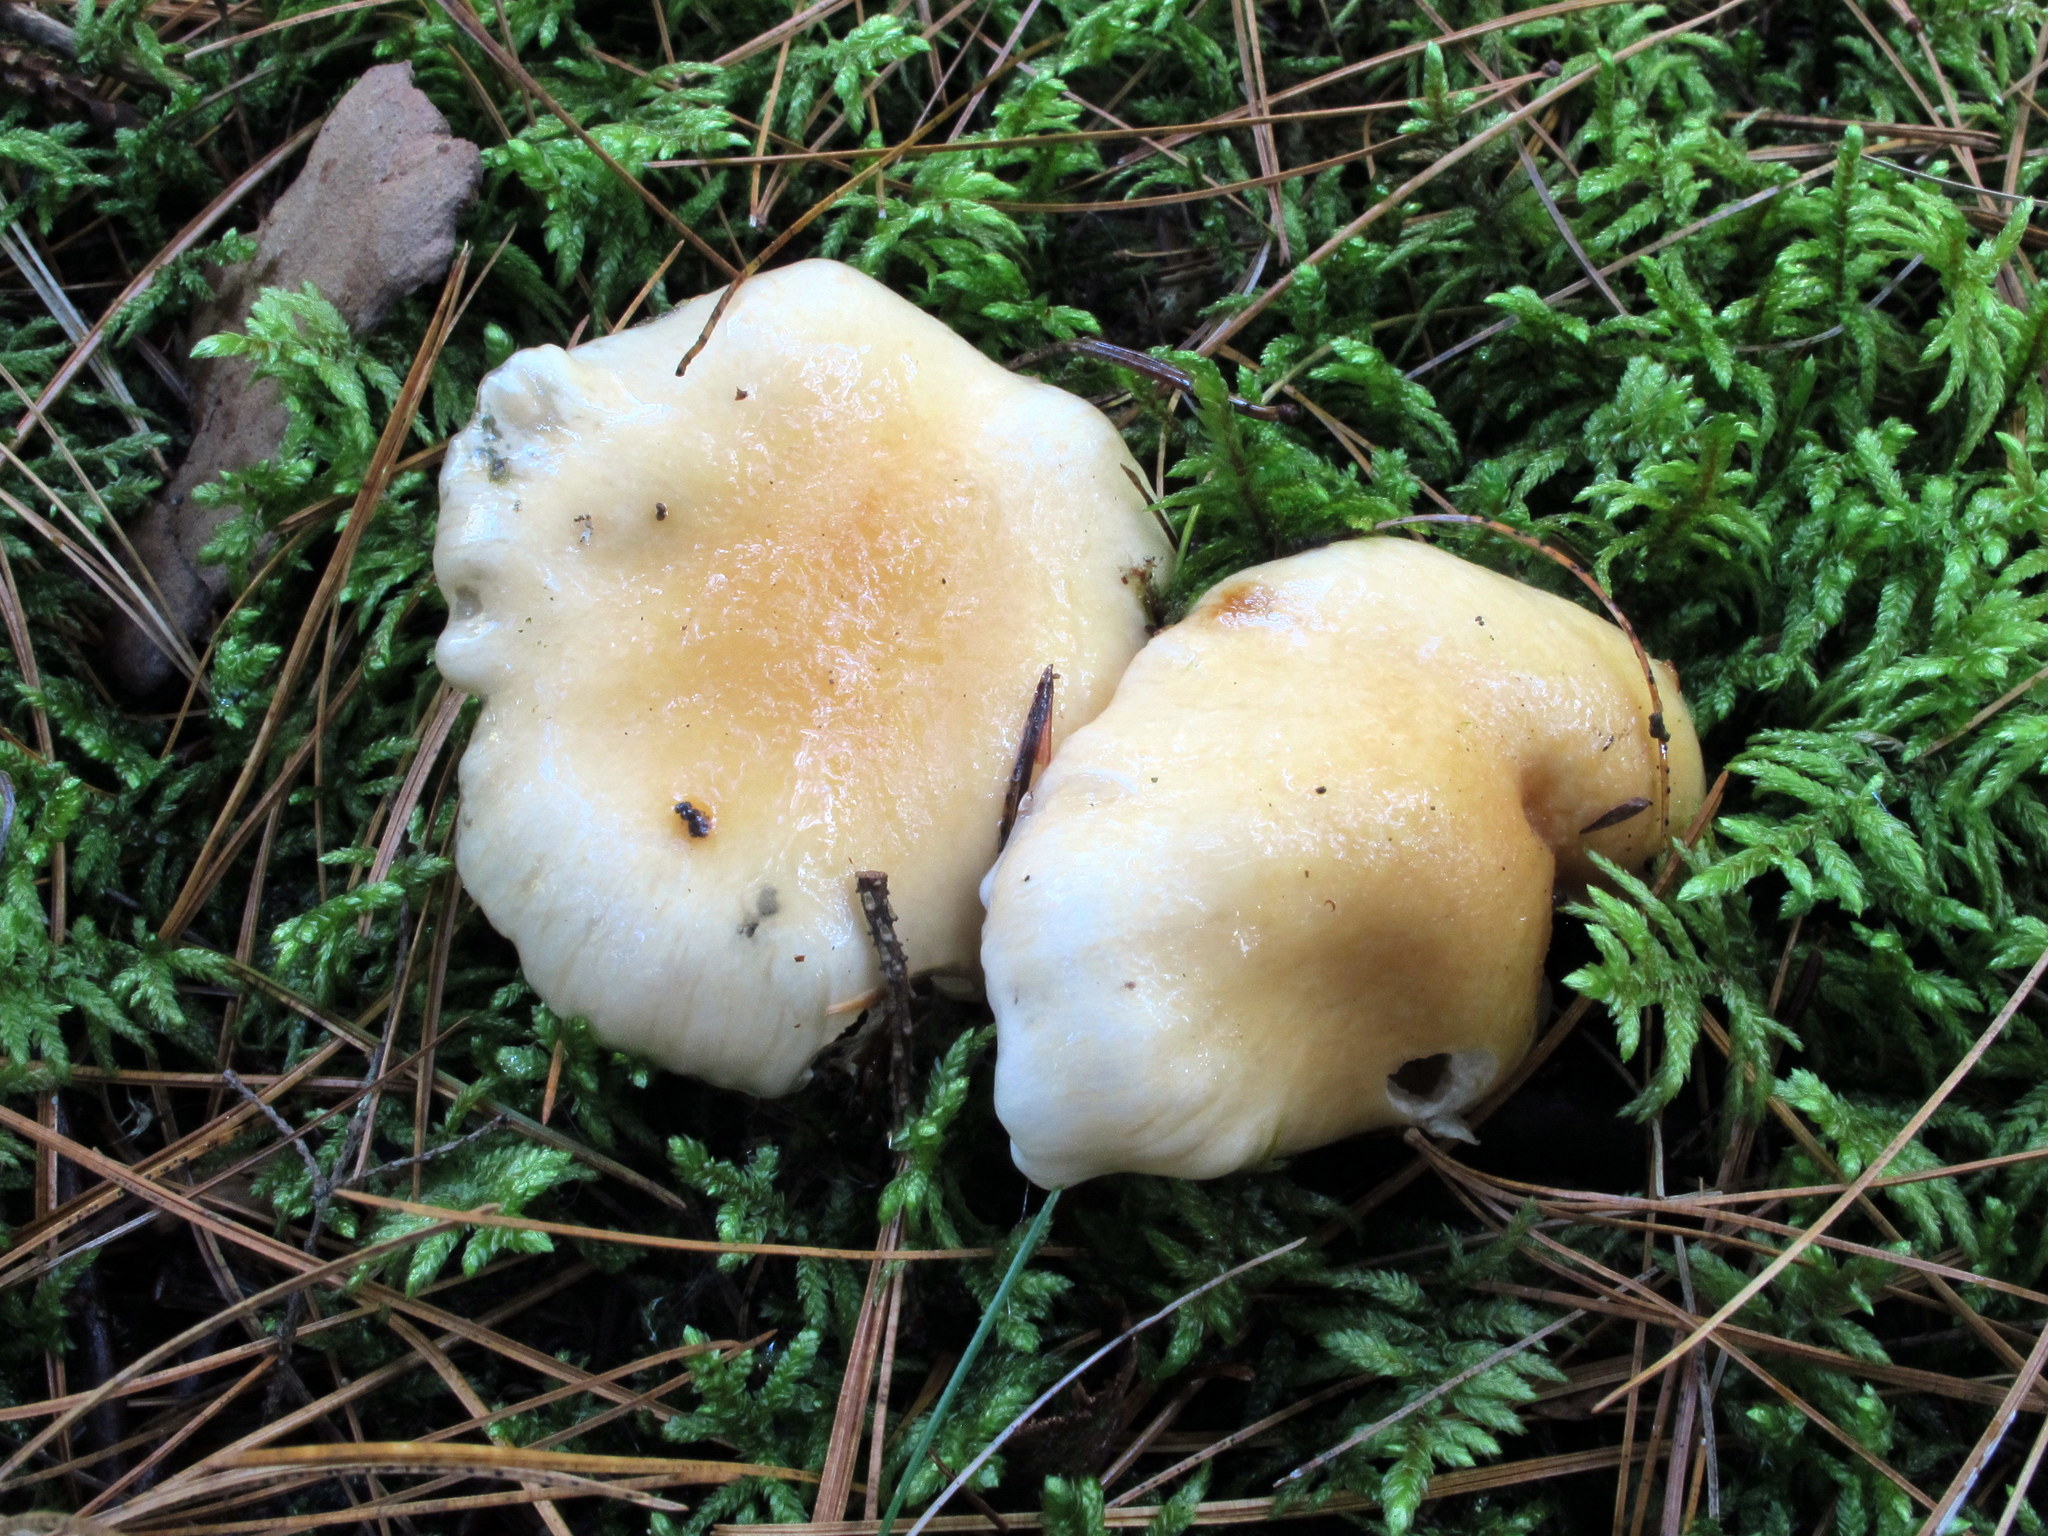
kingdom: Fungi
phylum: Basidiomycota
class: Agaricomycetes
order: Agaricales
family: Hygrophoraceae
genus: Hygrophorus
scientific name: Hygrophorus ligatus
